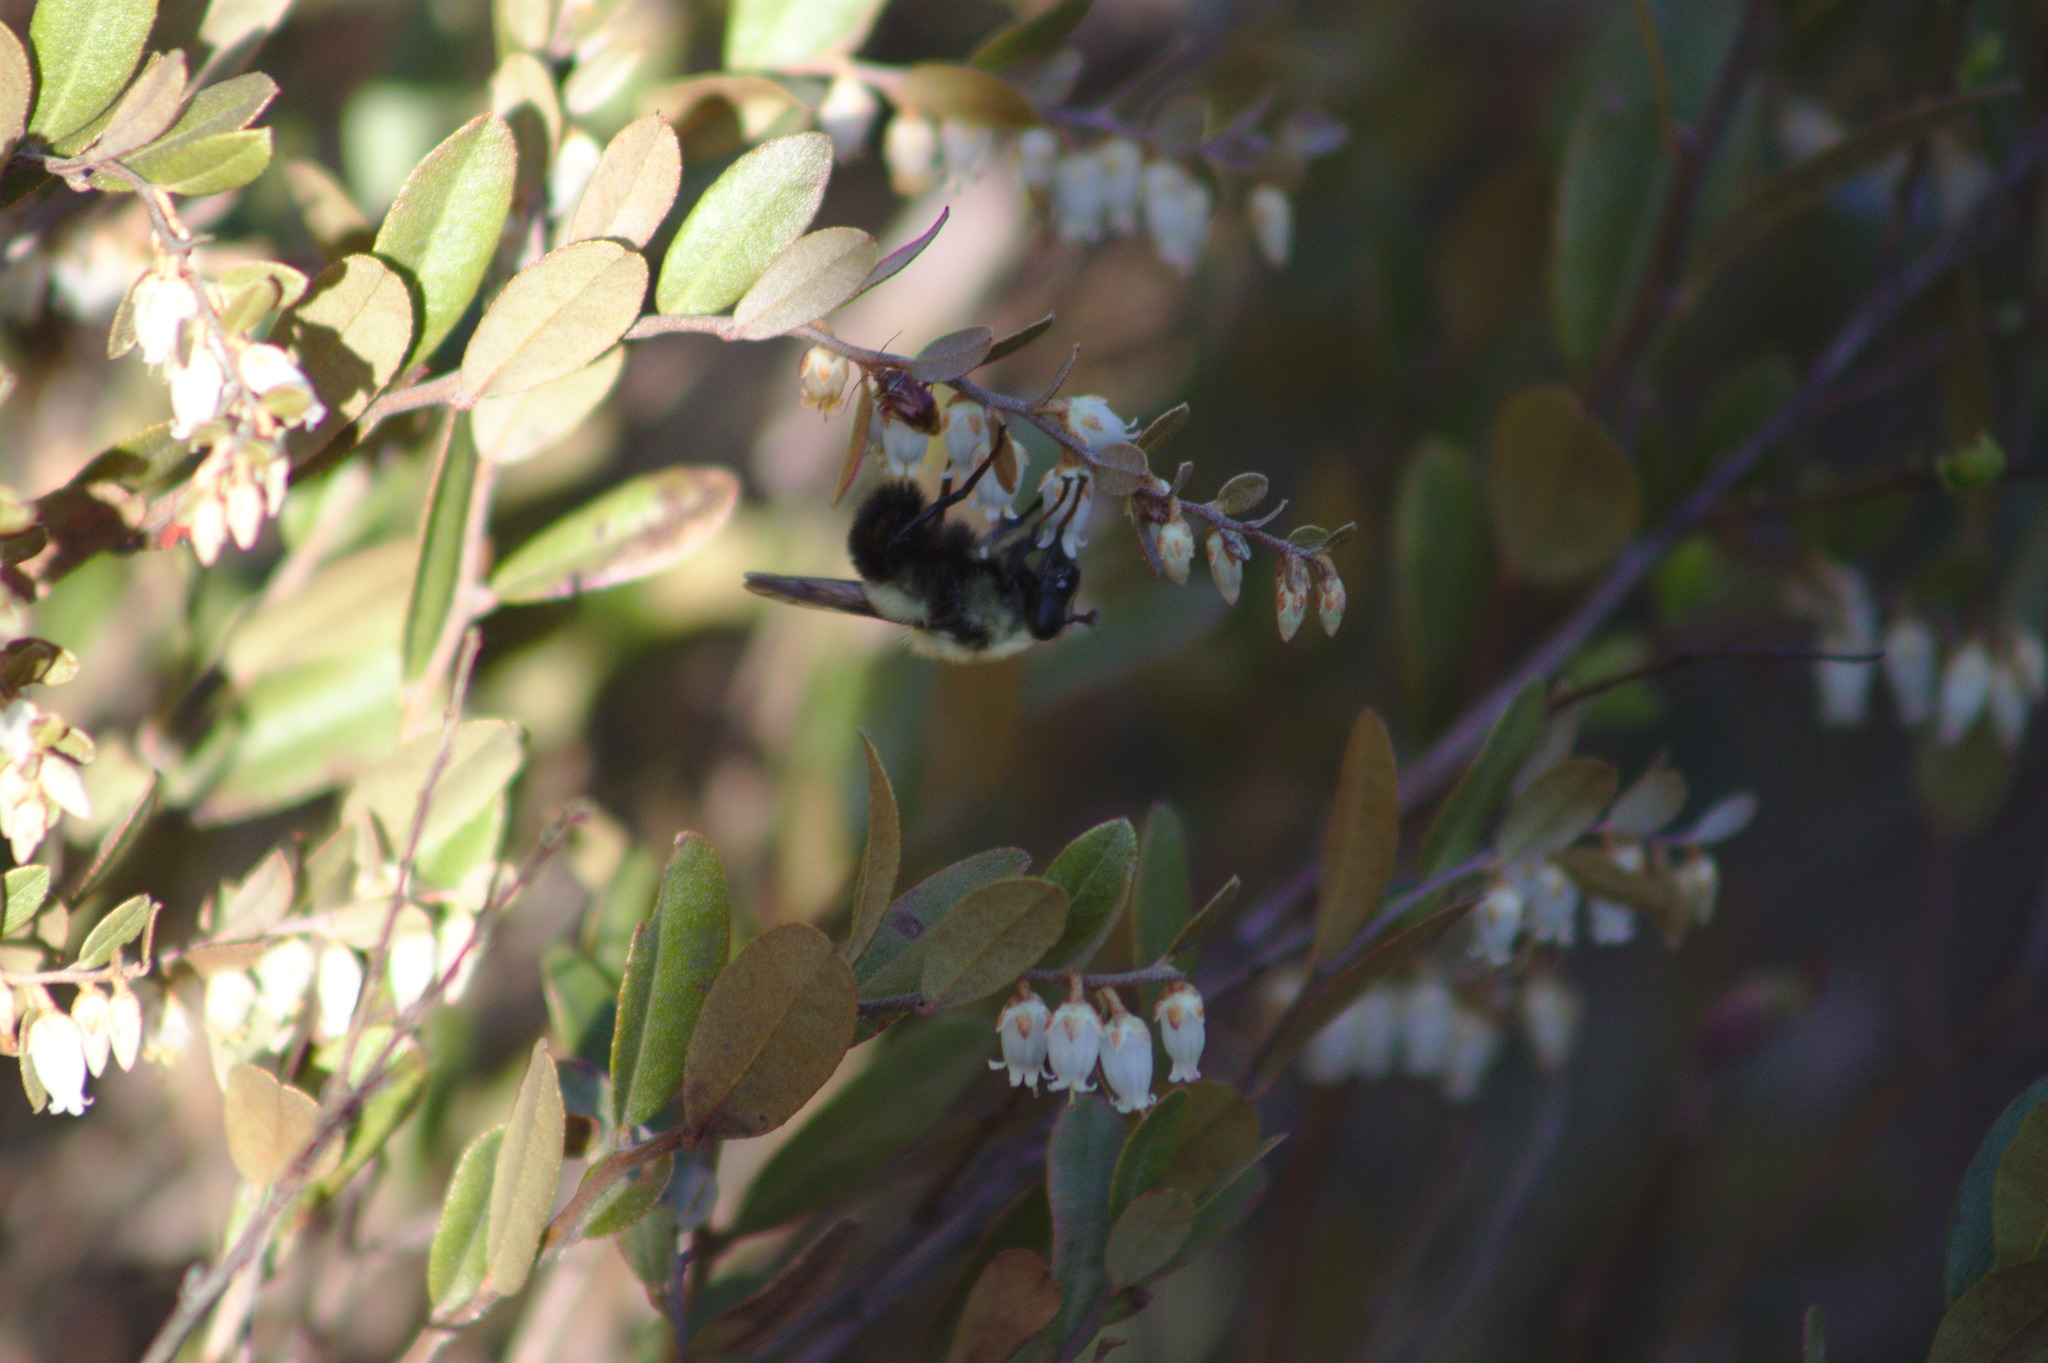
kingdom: Plantae
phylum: Tracheophyta
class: Magnoliopsida
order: Ericales
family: Ericaceae
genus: Chamaedaphne
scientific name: Chamaedaphne calyculata
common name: Leatherleaf
